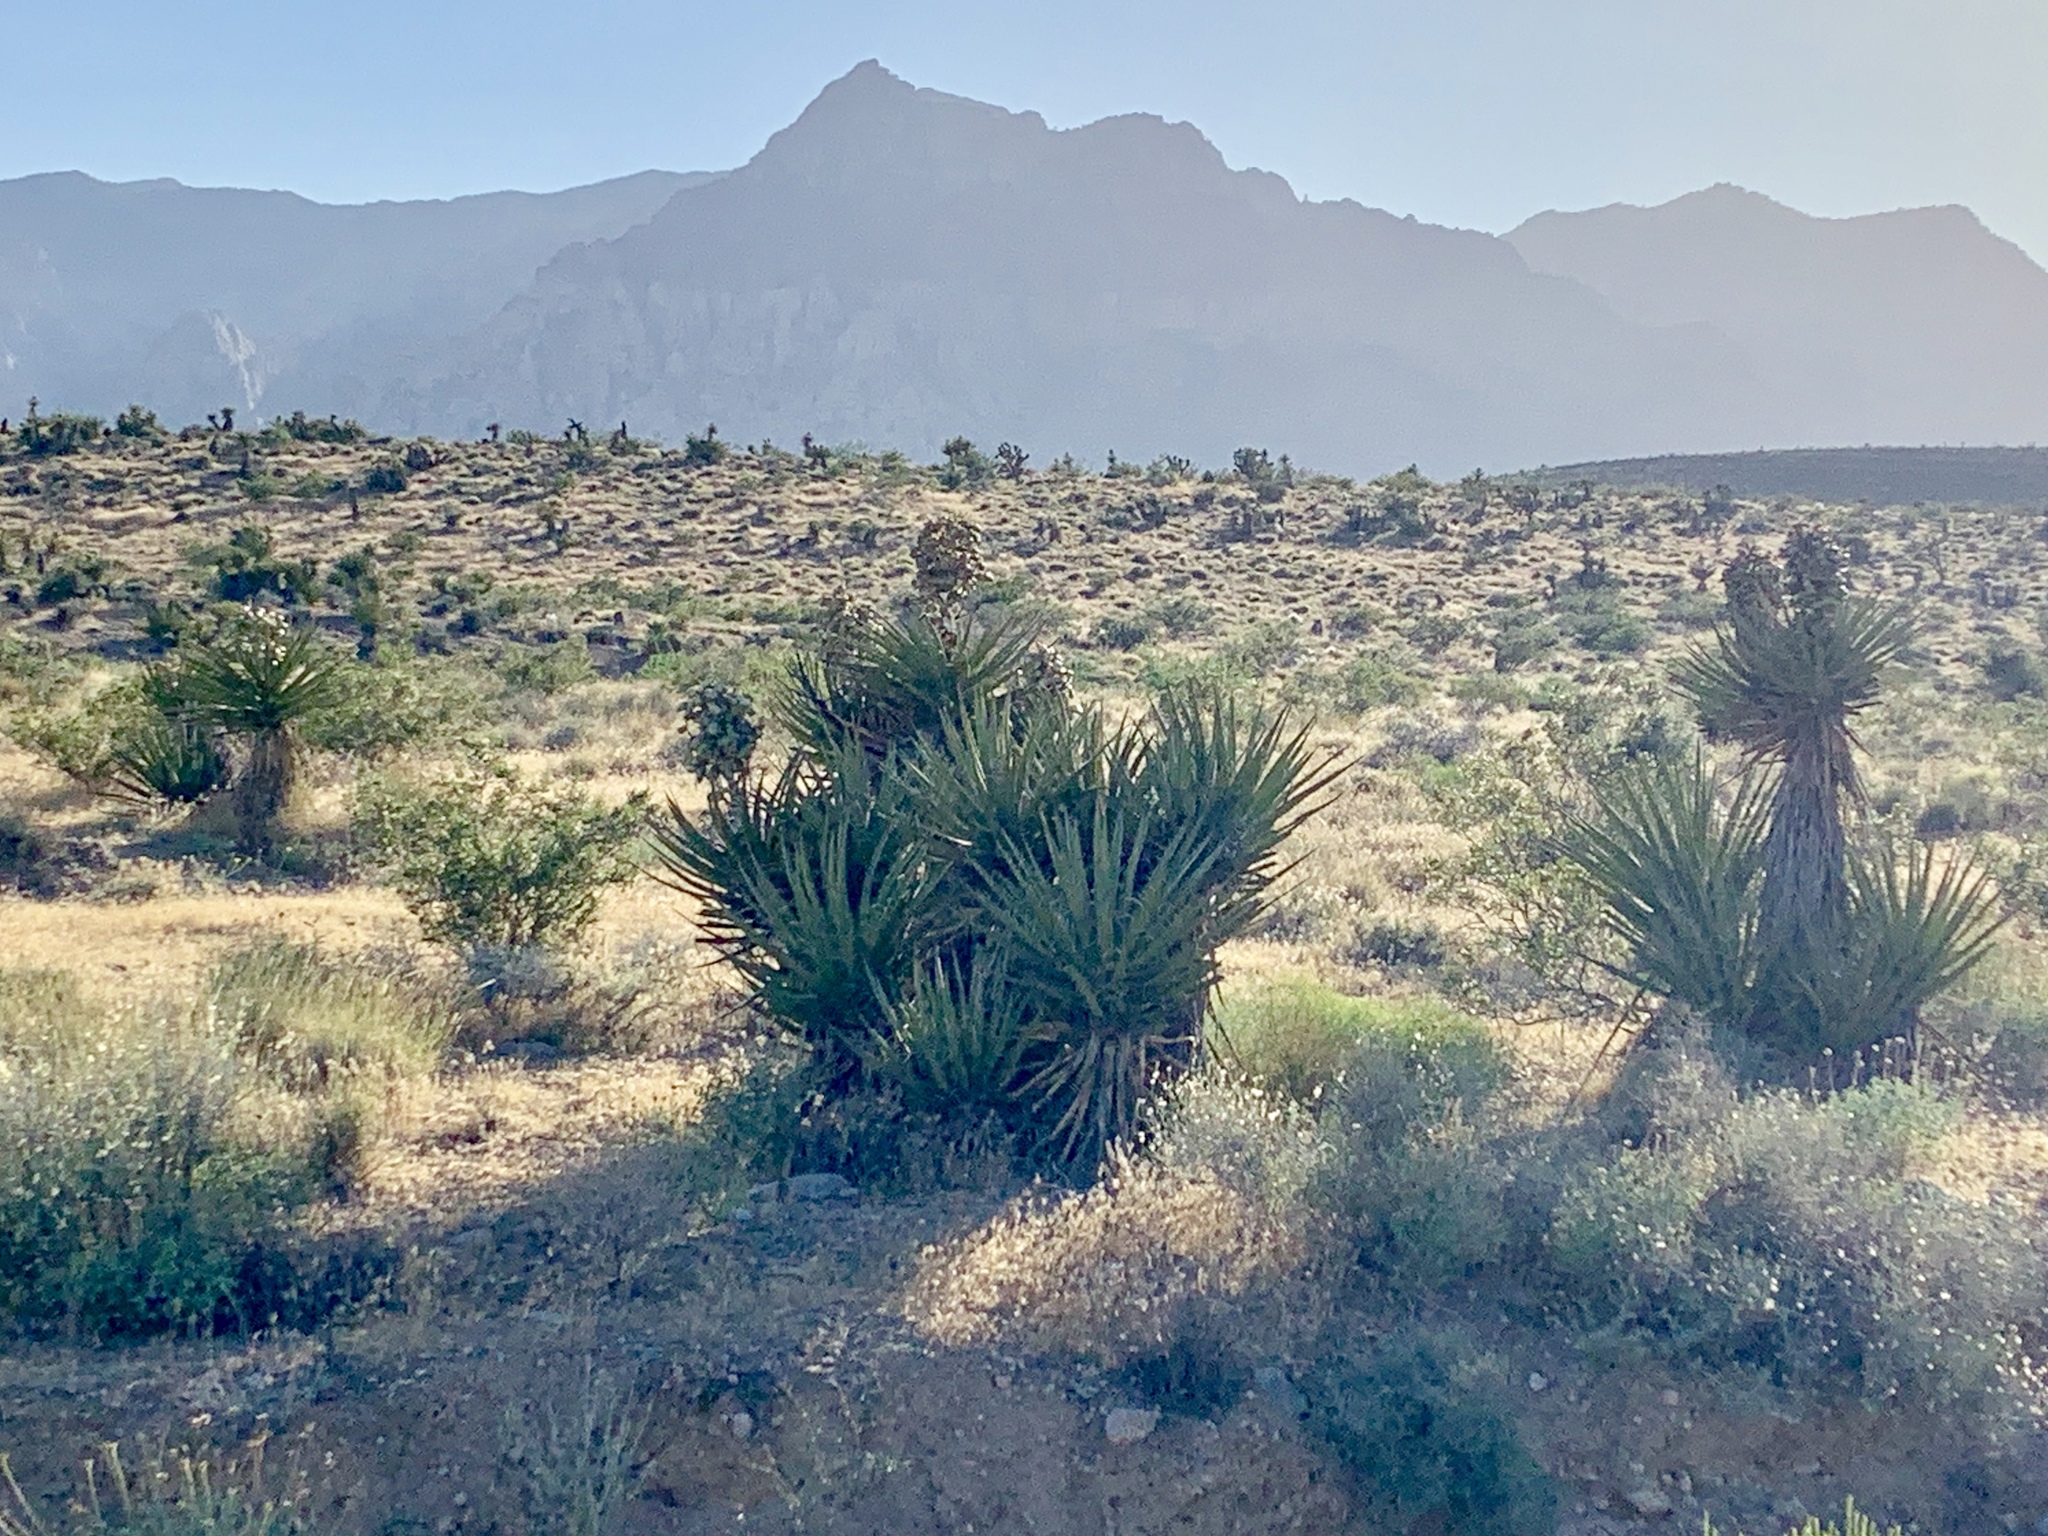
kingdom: Plantae
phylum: Tracheophyta
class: Liliopsida
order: Asparagales
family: Asparagaceae
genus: Yucca
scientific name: Yucca schidigera
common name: Mojave yucca
